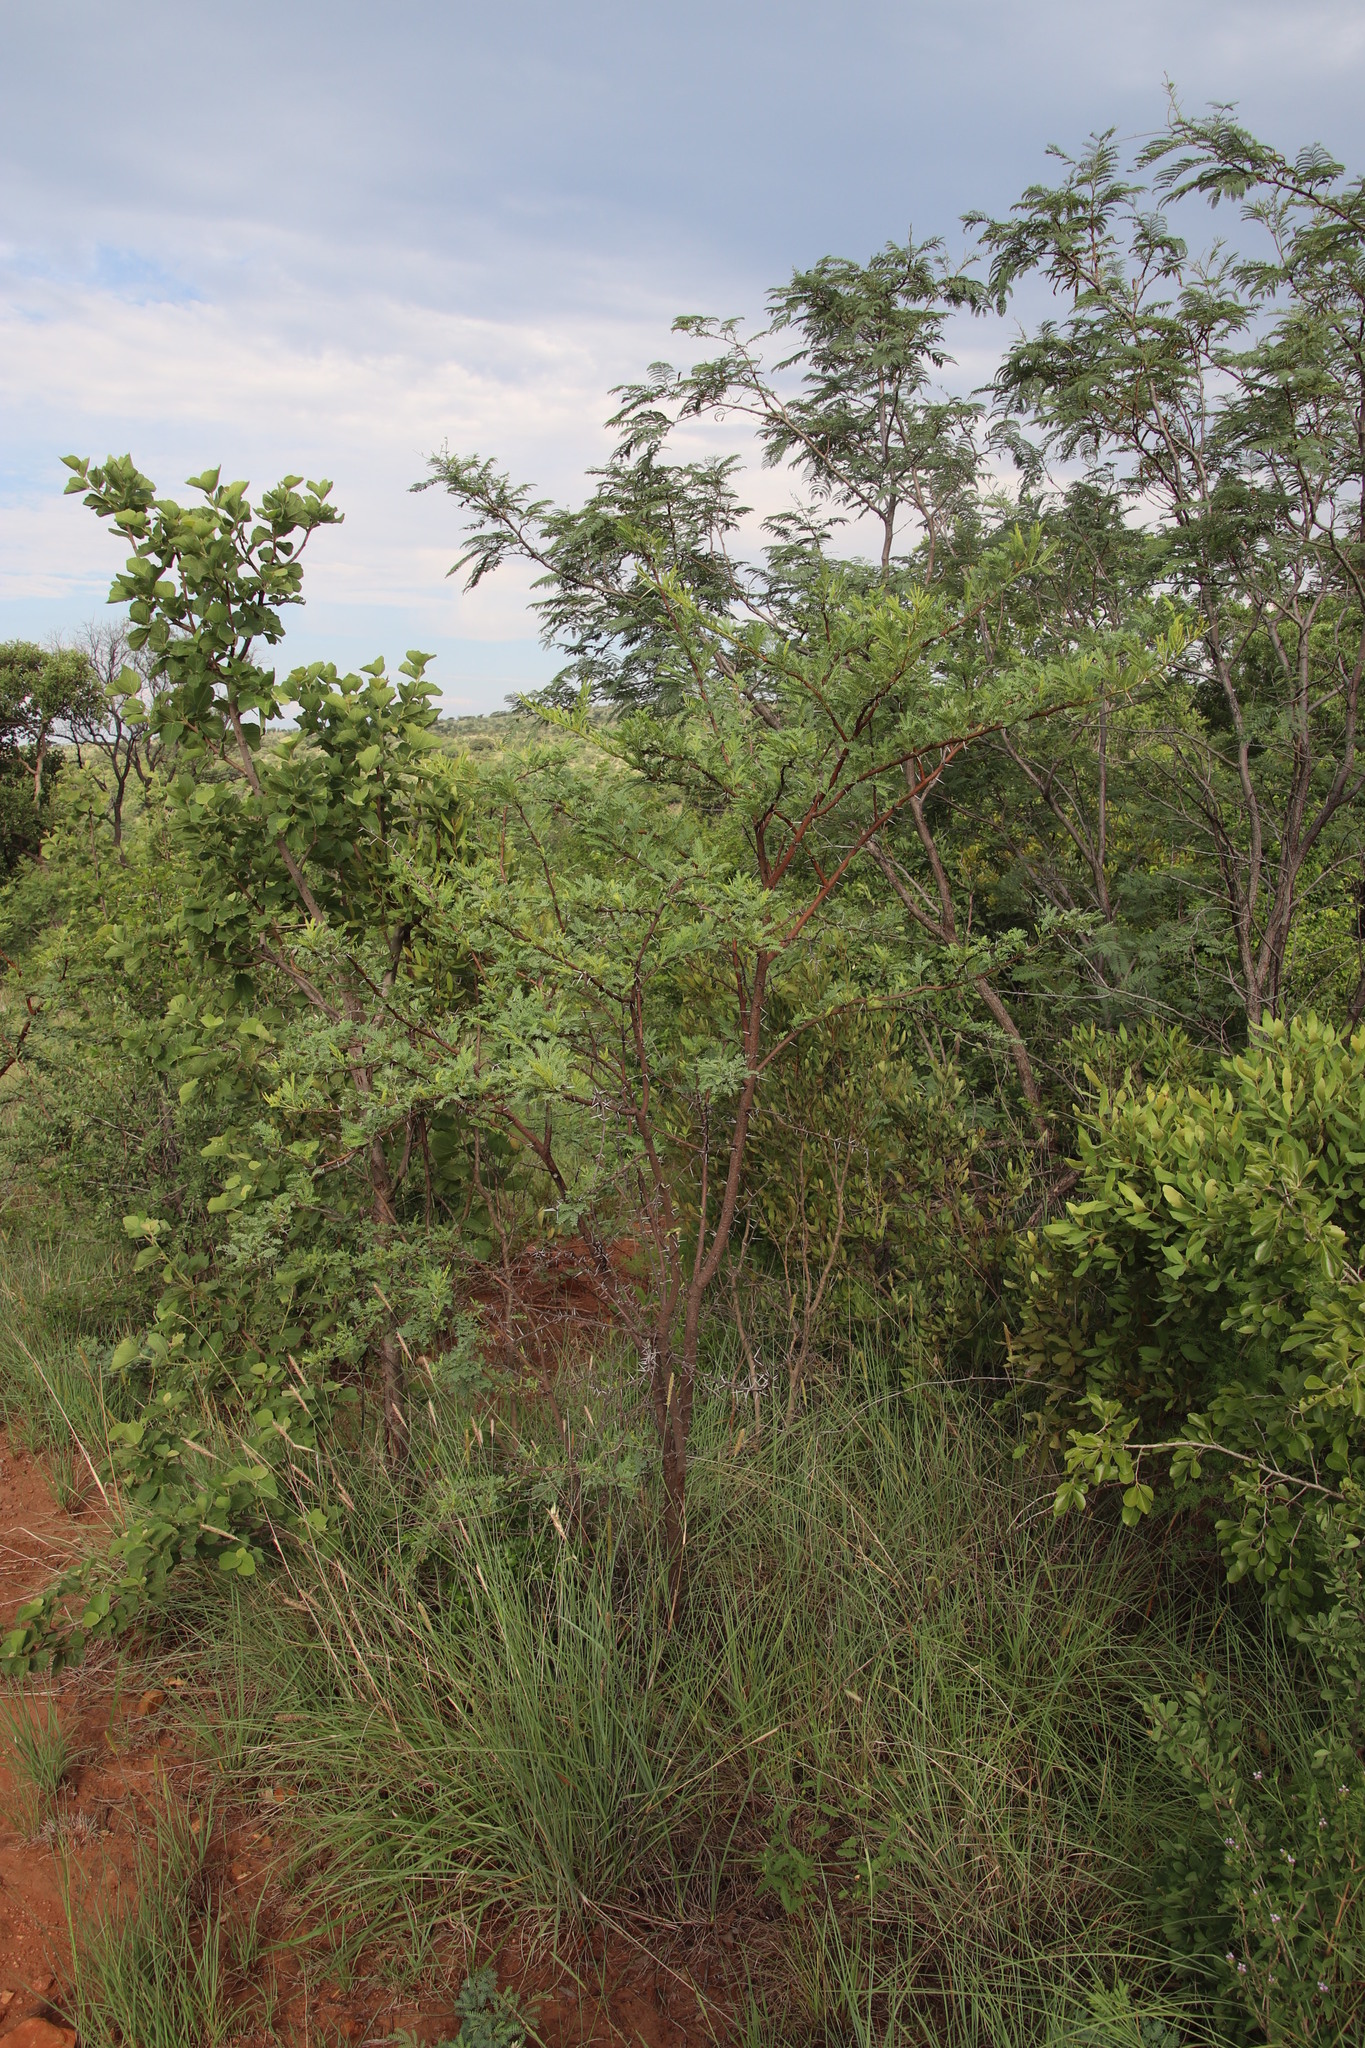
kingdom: Plantae
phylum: Tracheophyta
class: Magnoliopsida
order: Fabales
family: Fabaceae
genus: Vachellia
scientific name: Vachellia karroo
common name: Sweet thorn
